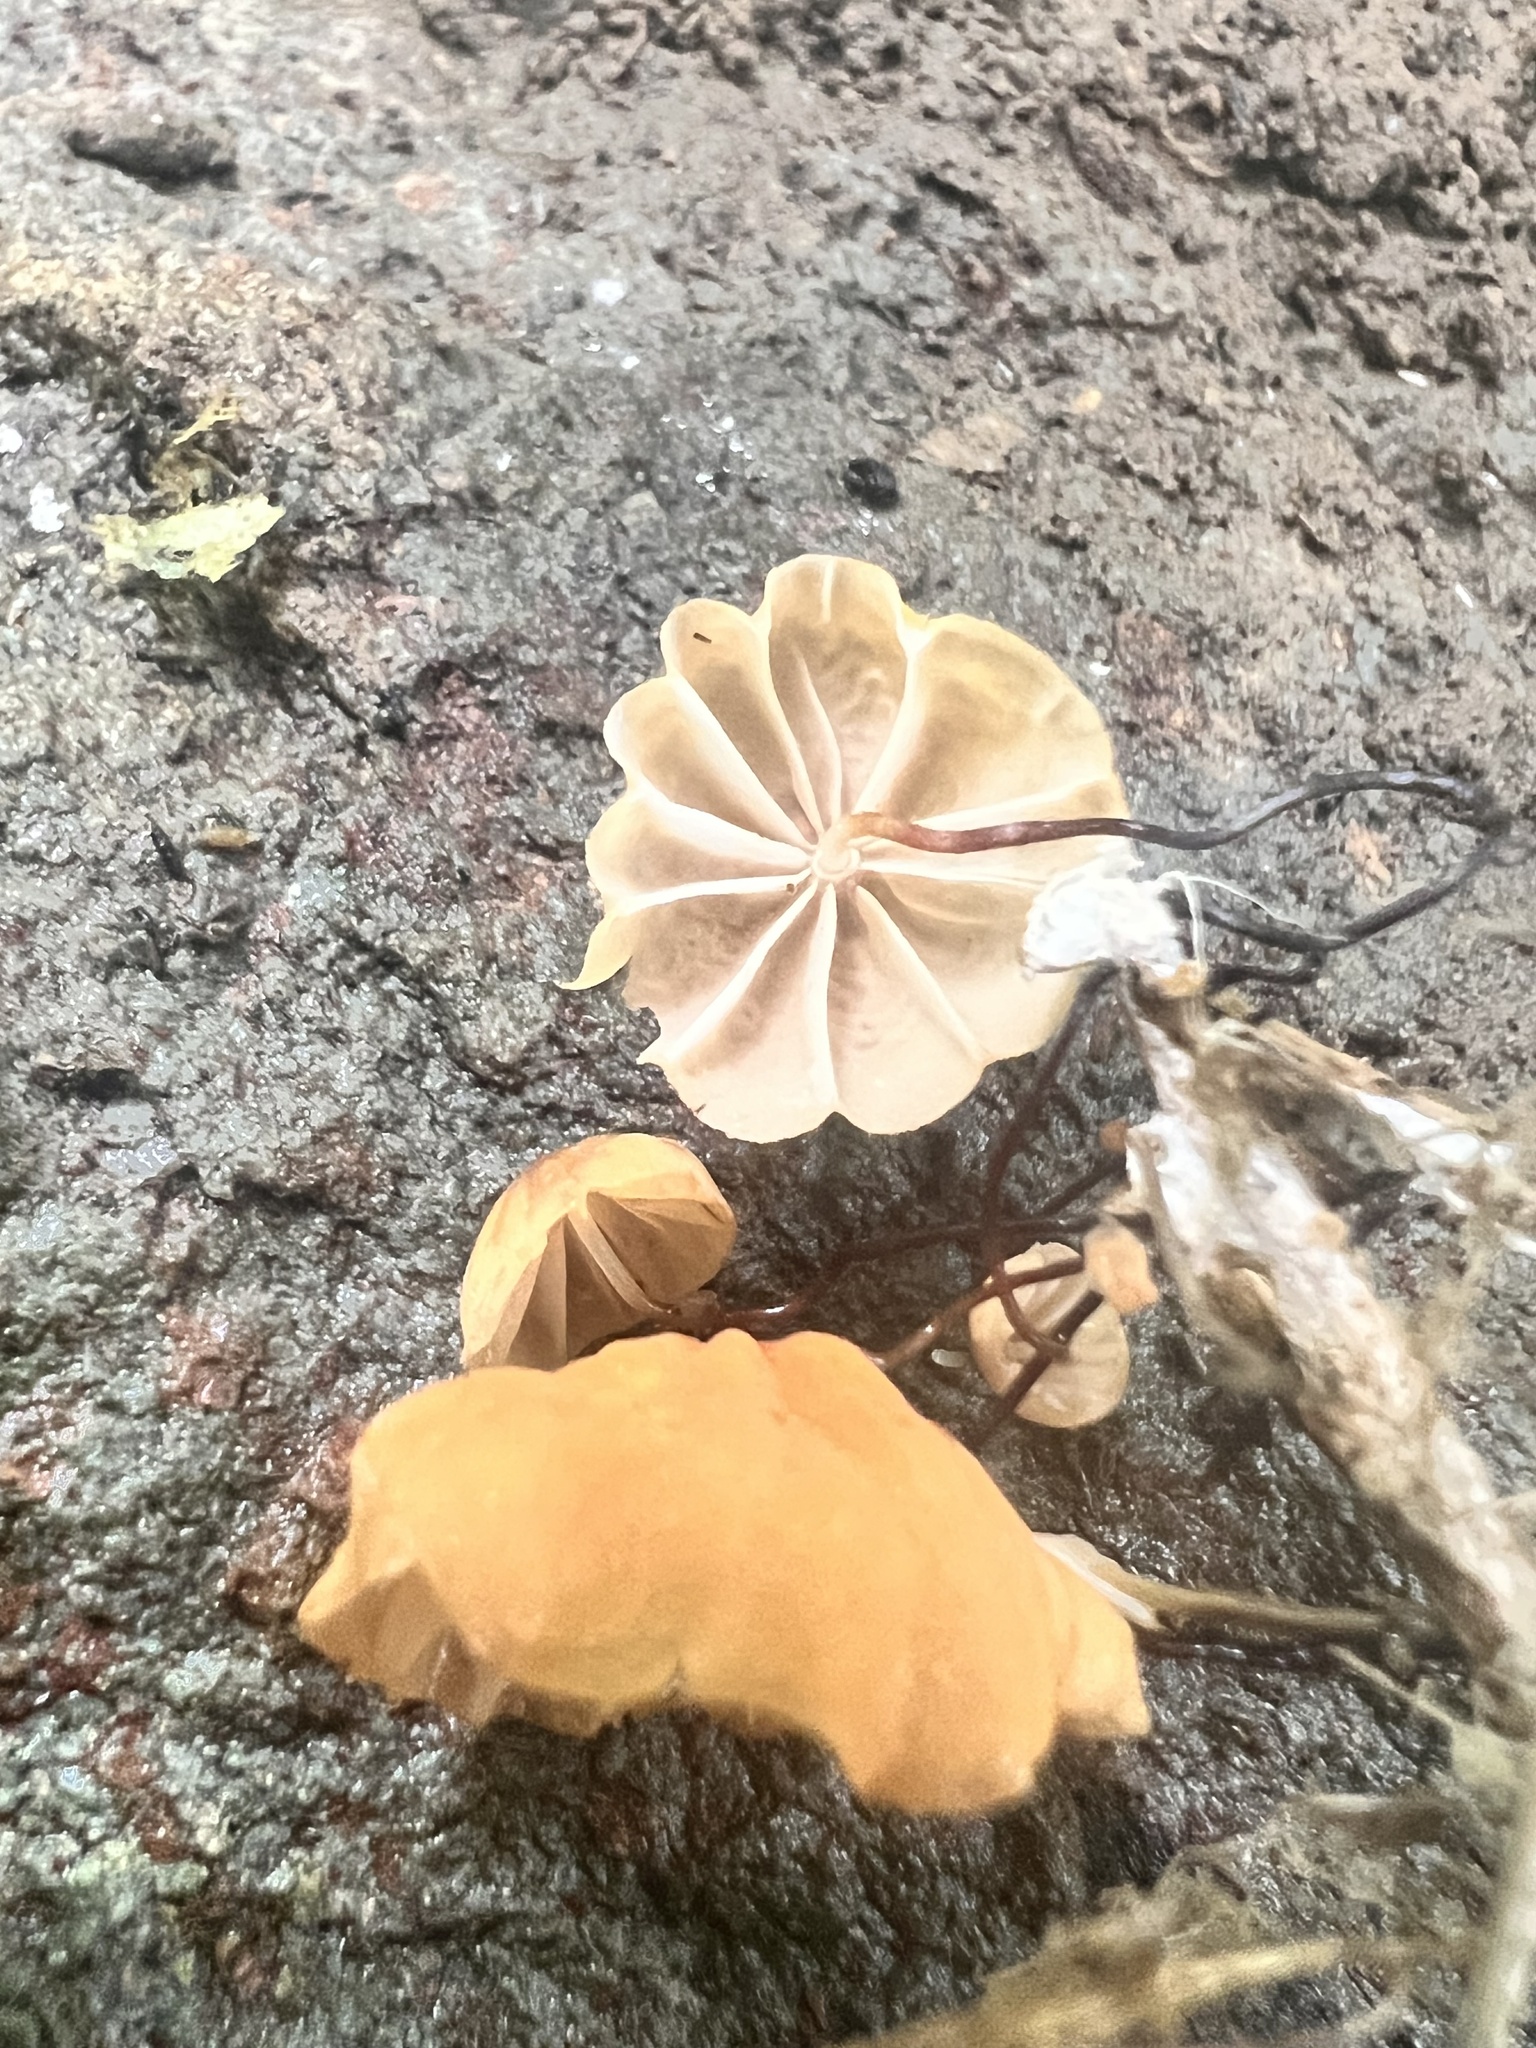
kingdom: Fungi
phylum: Basidiomycota
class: Agaricomycetes
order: Agaricales
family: Marasmiaceae
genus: Marasmius
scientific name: Marasmius croceus
